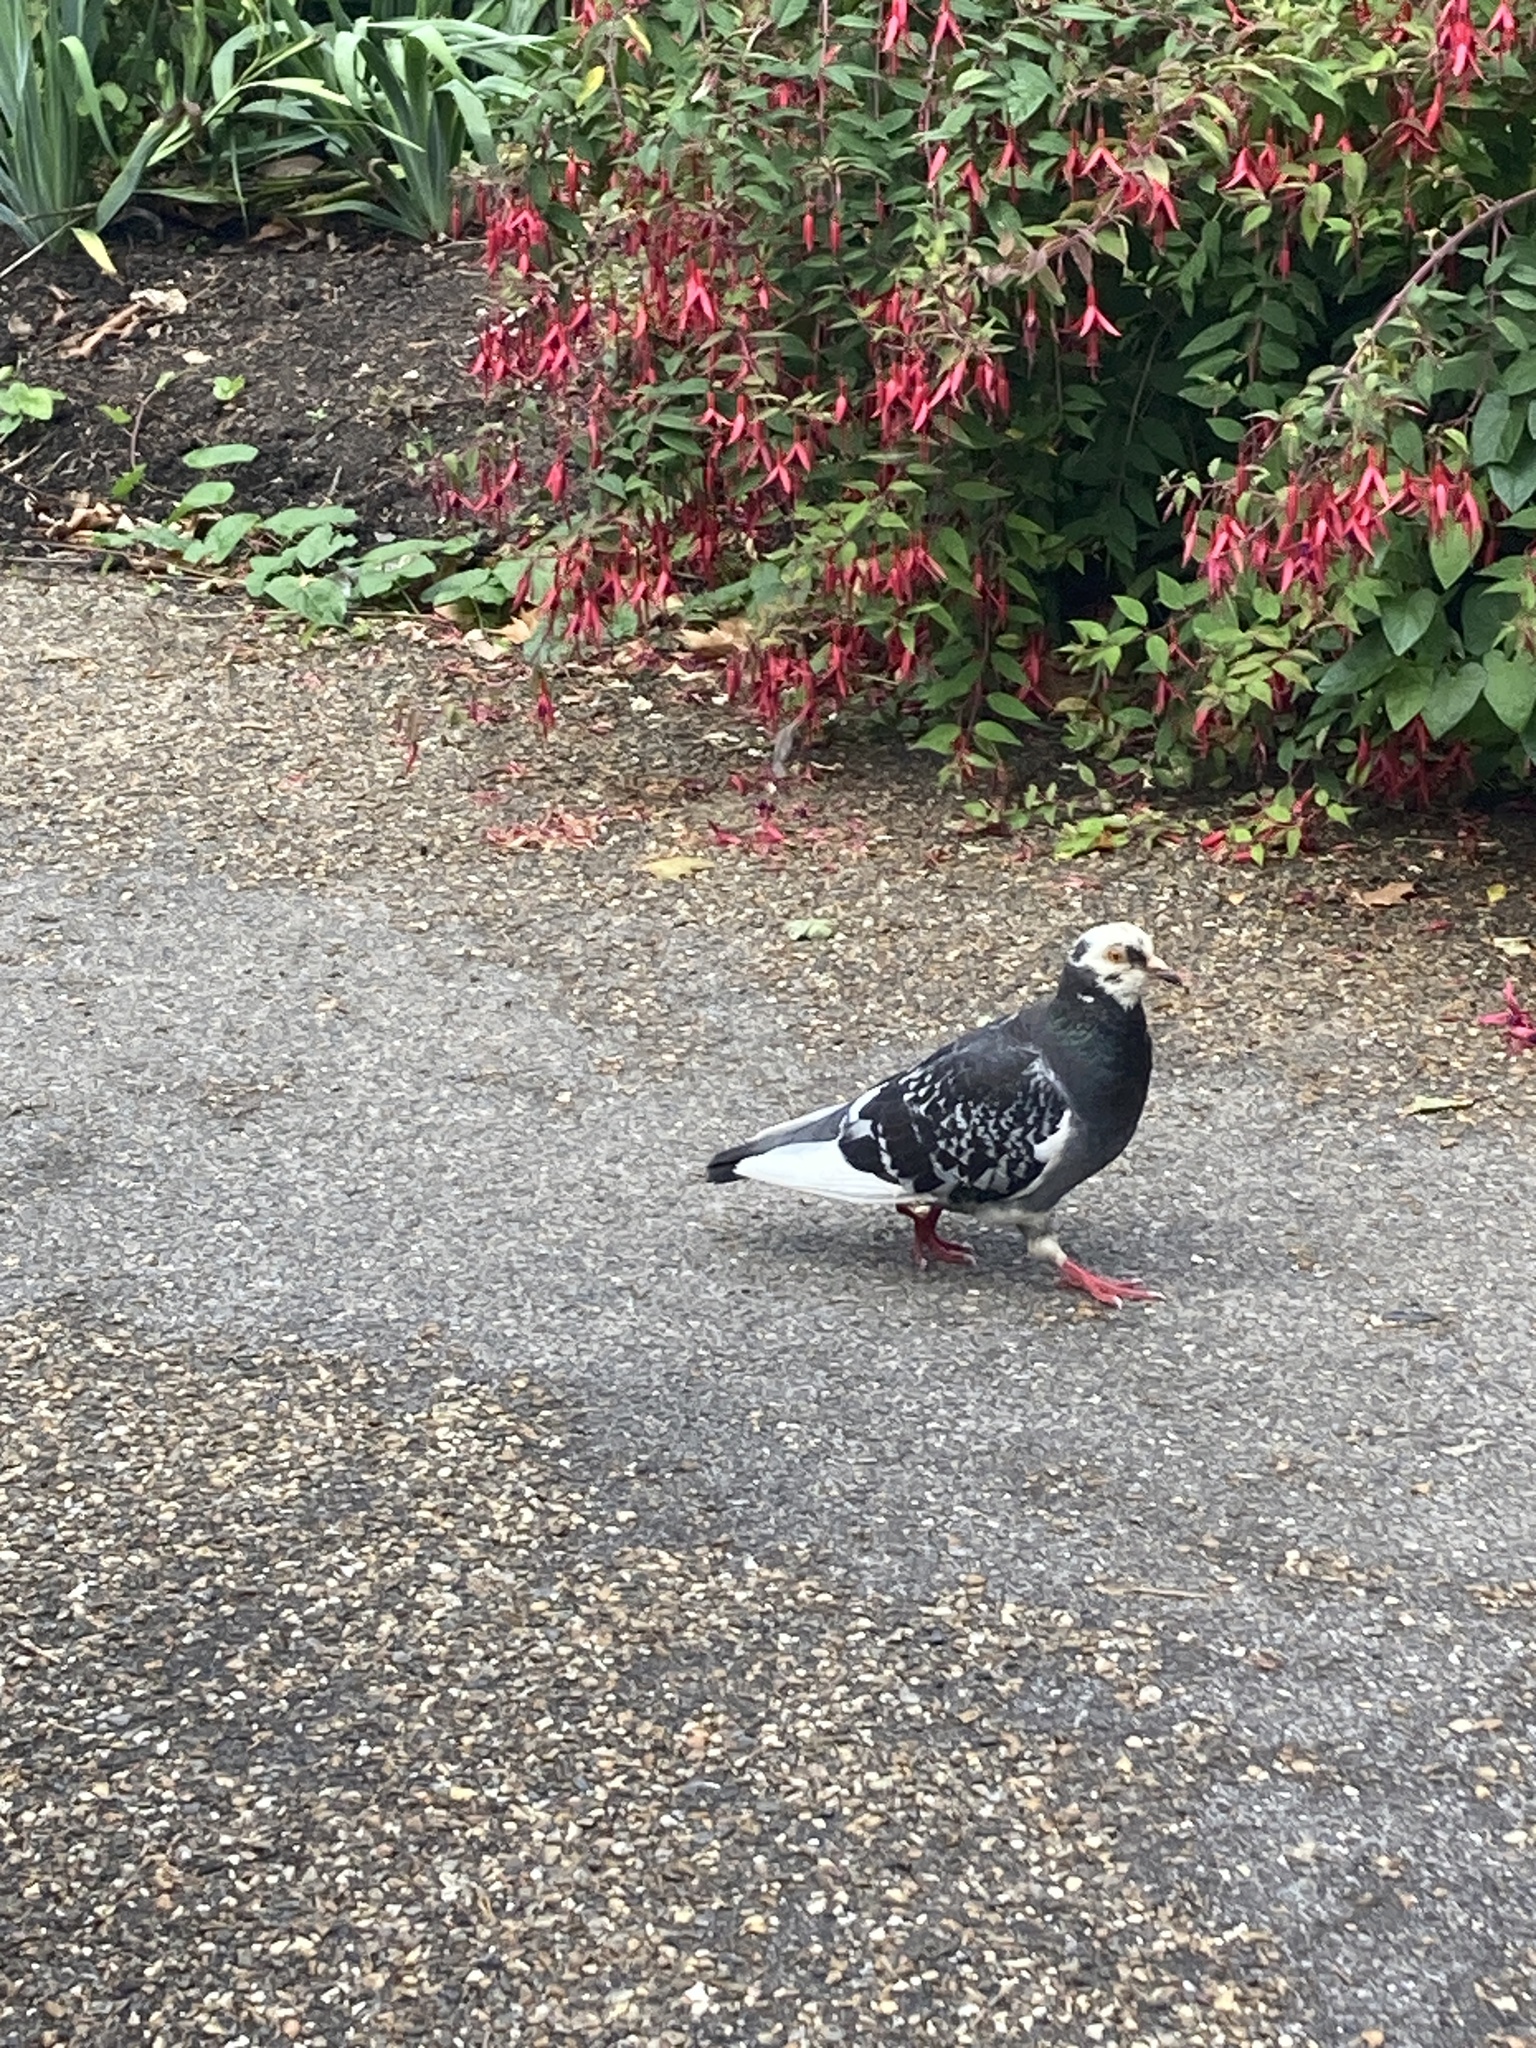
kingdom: Animalia
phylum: Chordata
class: Aves
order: Columbiformes
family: Columbidae
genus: Columba
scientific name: Columba livia
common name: Rock pigeon
